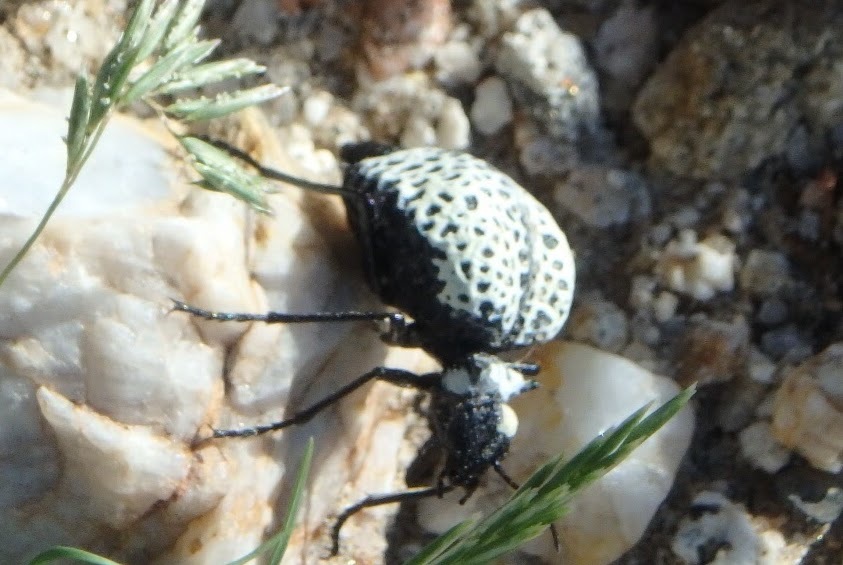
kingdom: Animalia
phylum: Arthropoda
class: Insecta
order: Coleoptera
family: Meloidae
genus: Cysteodemus
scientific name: Cysteodemus armatus
